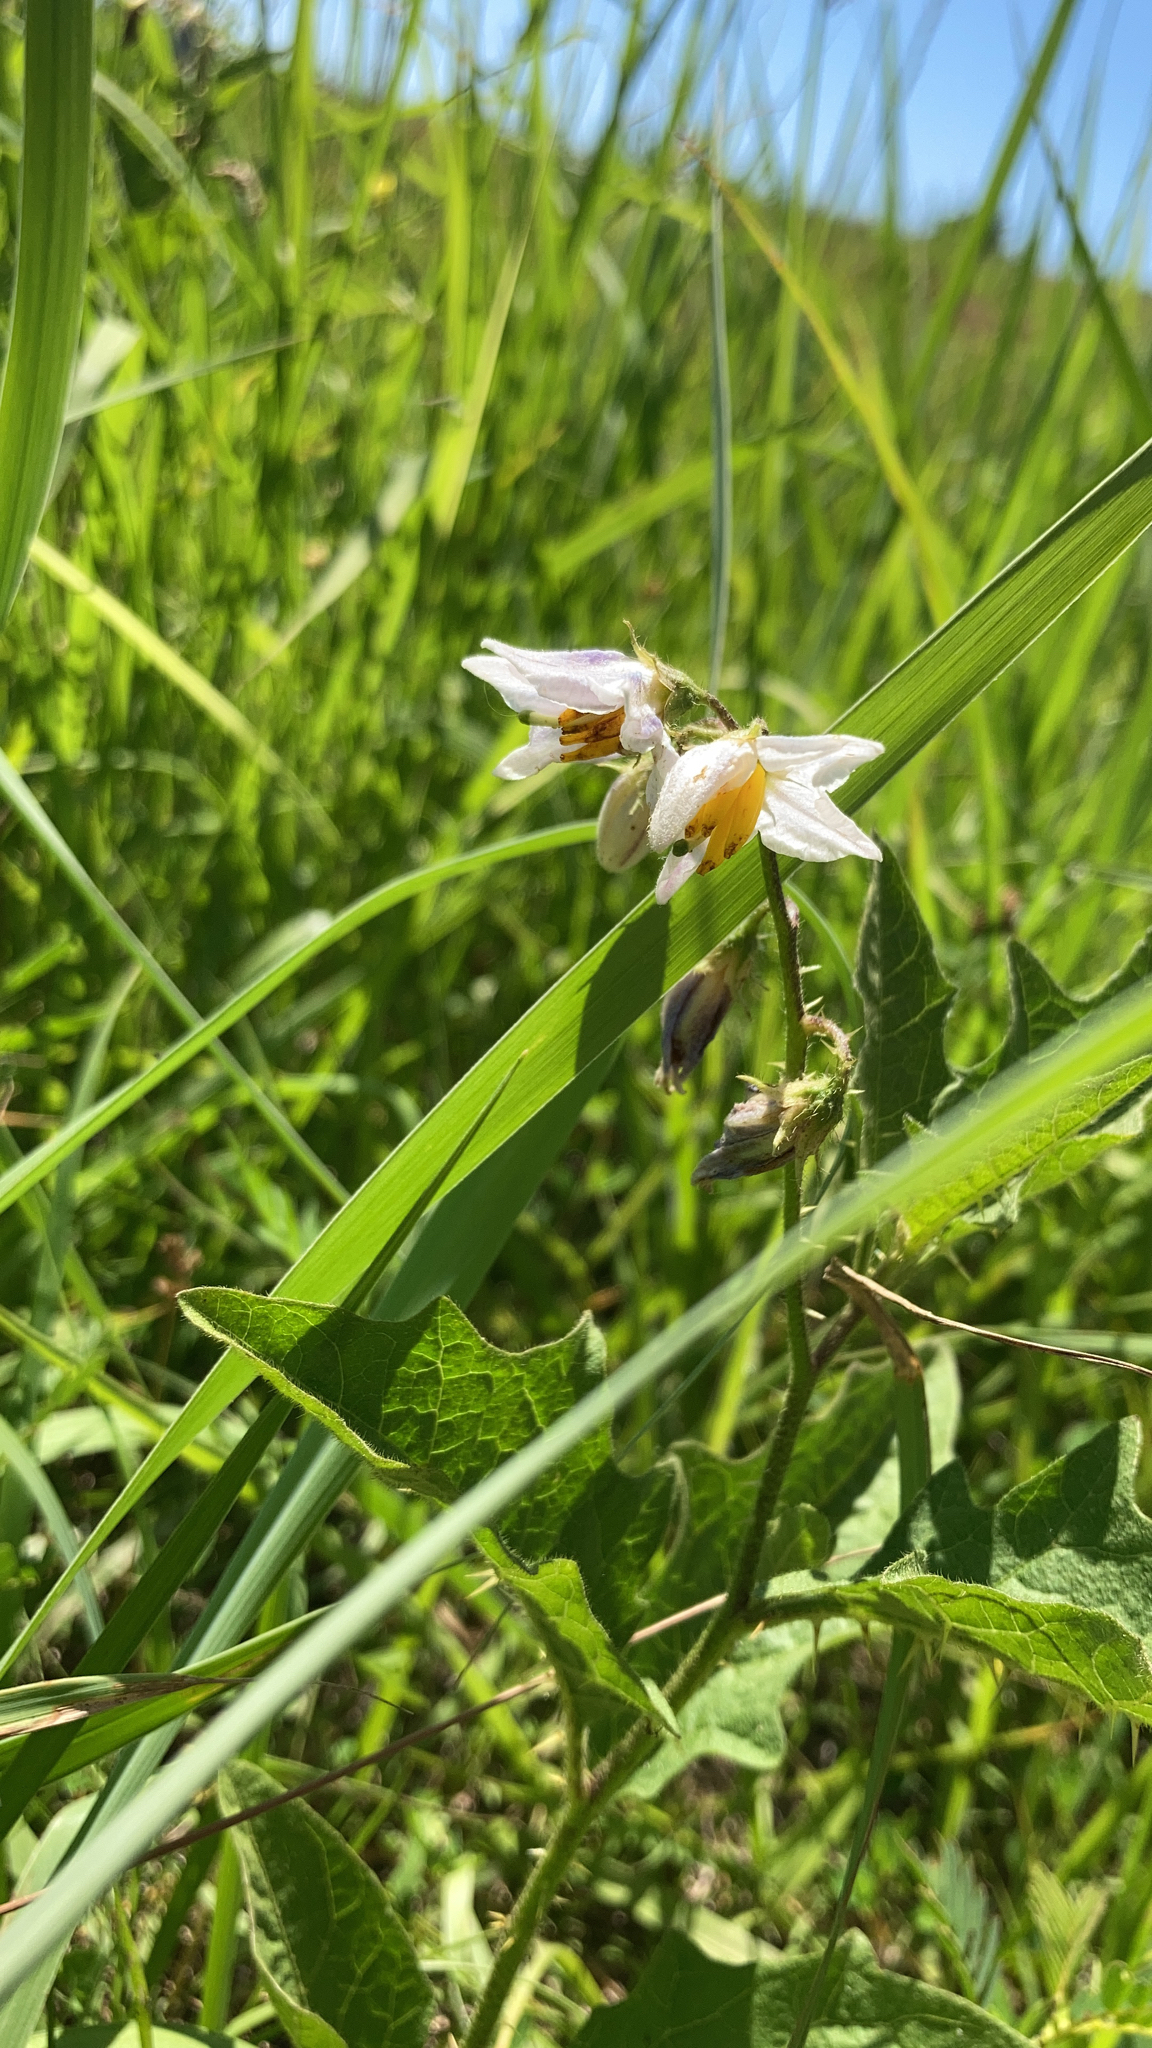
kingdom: Plantae
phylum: Tracheophyta
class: Magnoliopsida
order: Solanales
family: Solanaceae
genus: Solanum
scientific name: Solanum carolinense
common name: Horse-nettle
